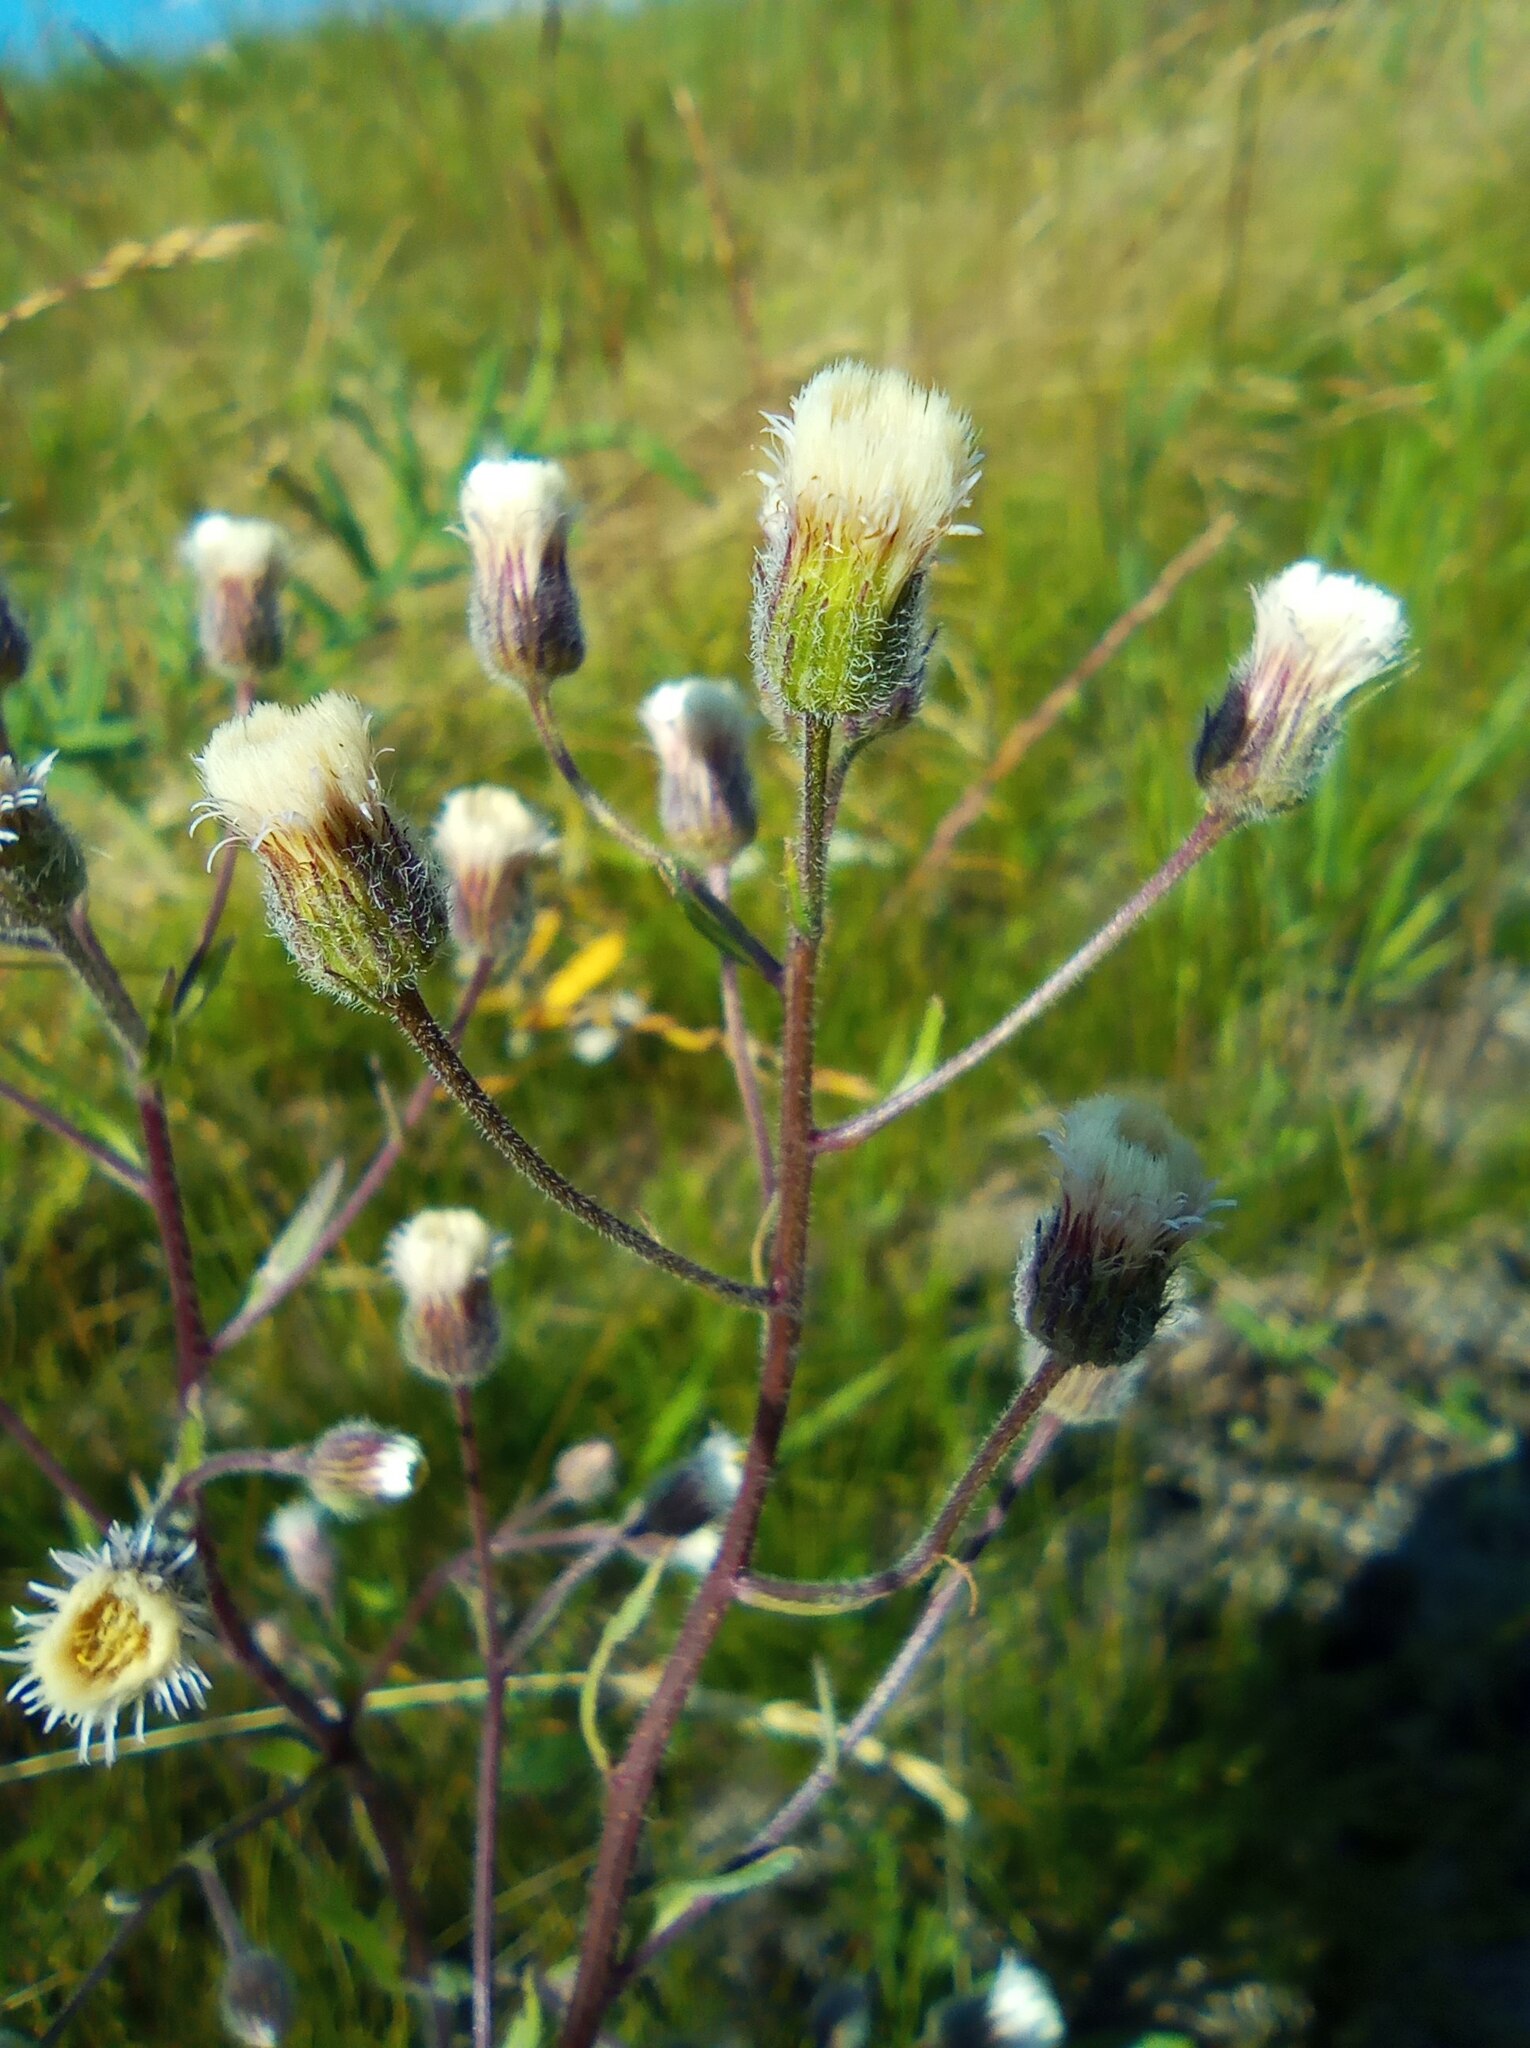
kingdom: Plantae
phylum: Tracheophyta
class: Magnoliopsida
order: Asterales
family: Asteraceae
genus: Erigeron
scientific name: Erigeron acris
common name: Blue fleabane
